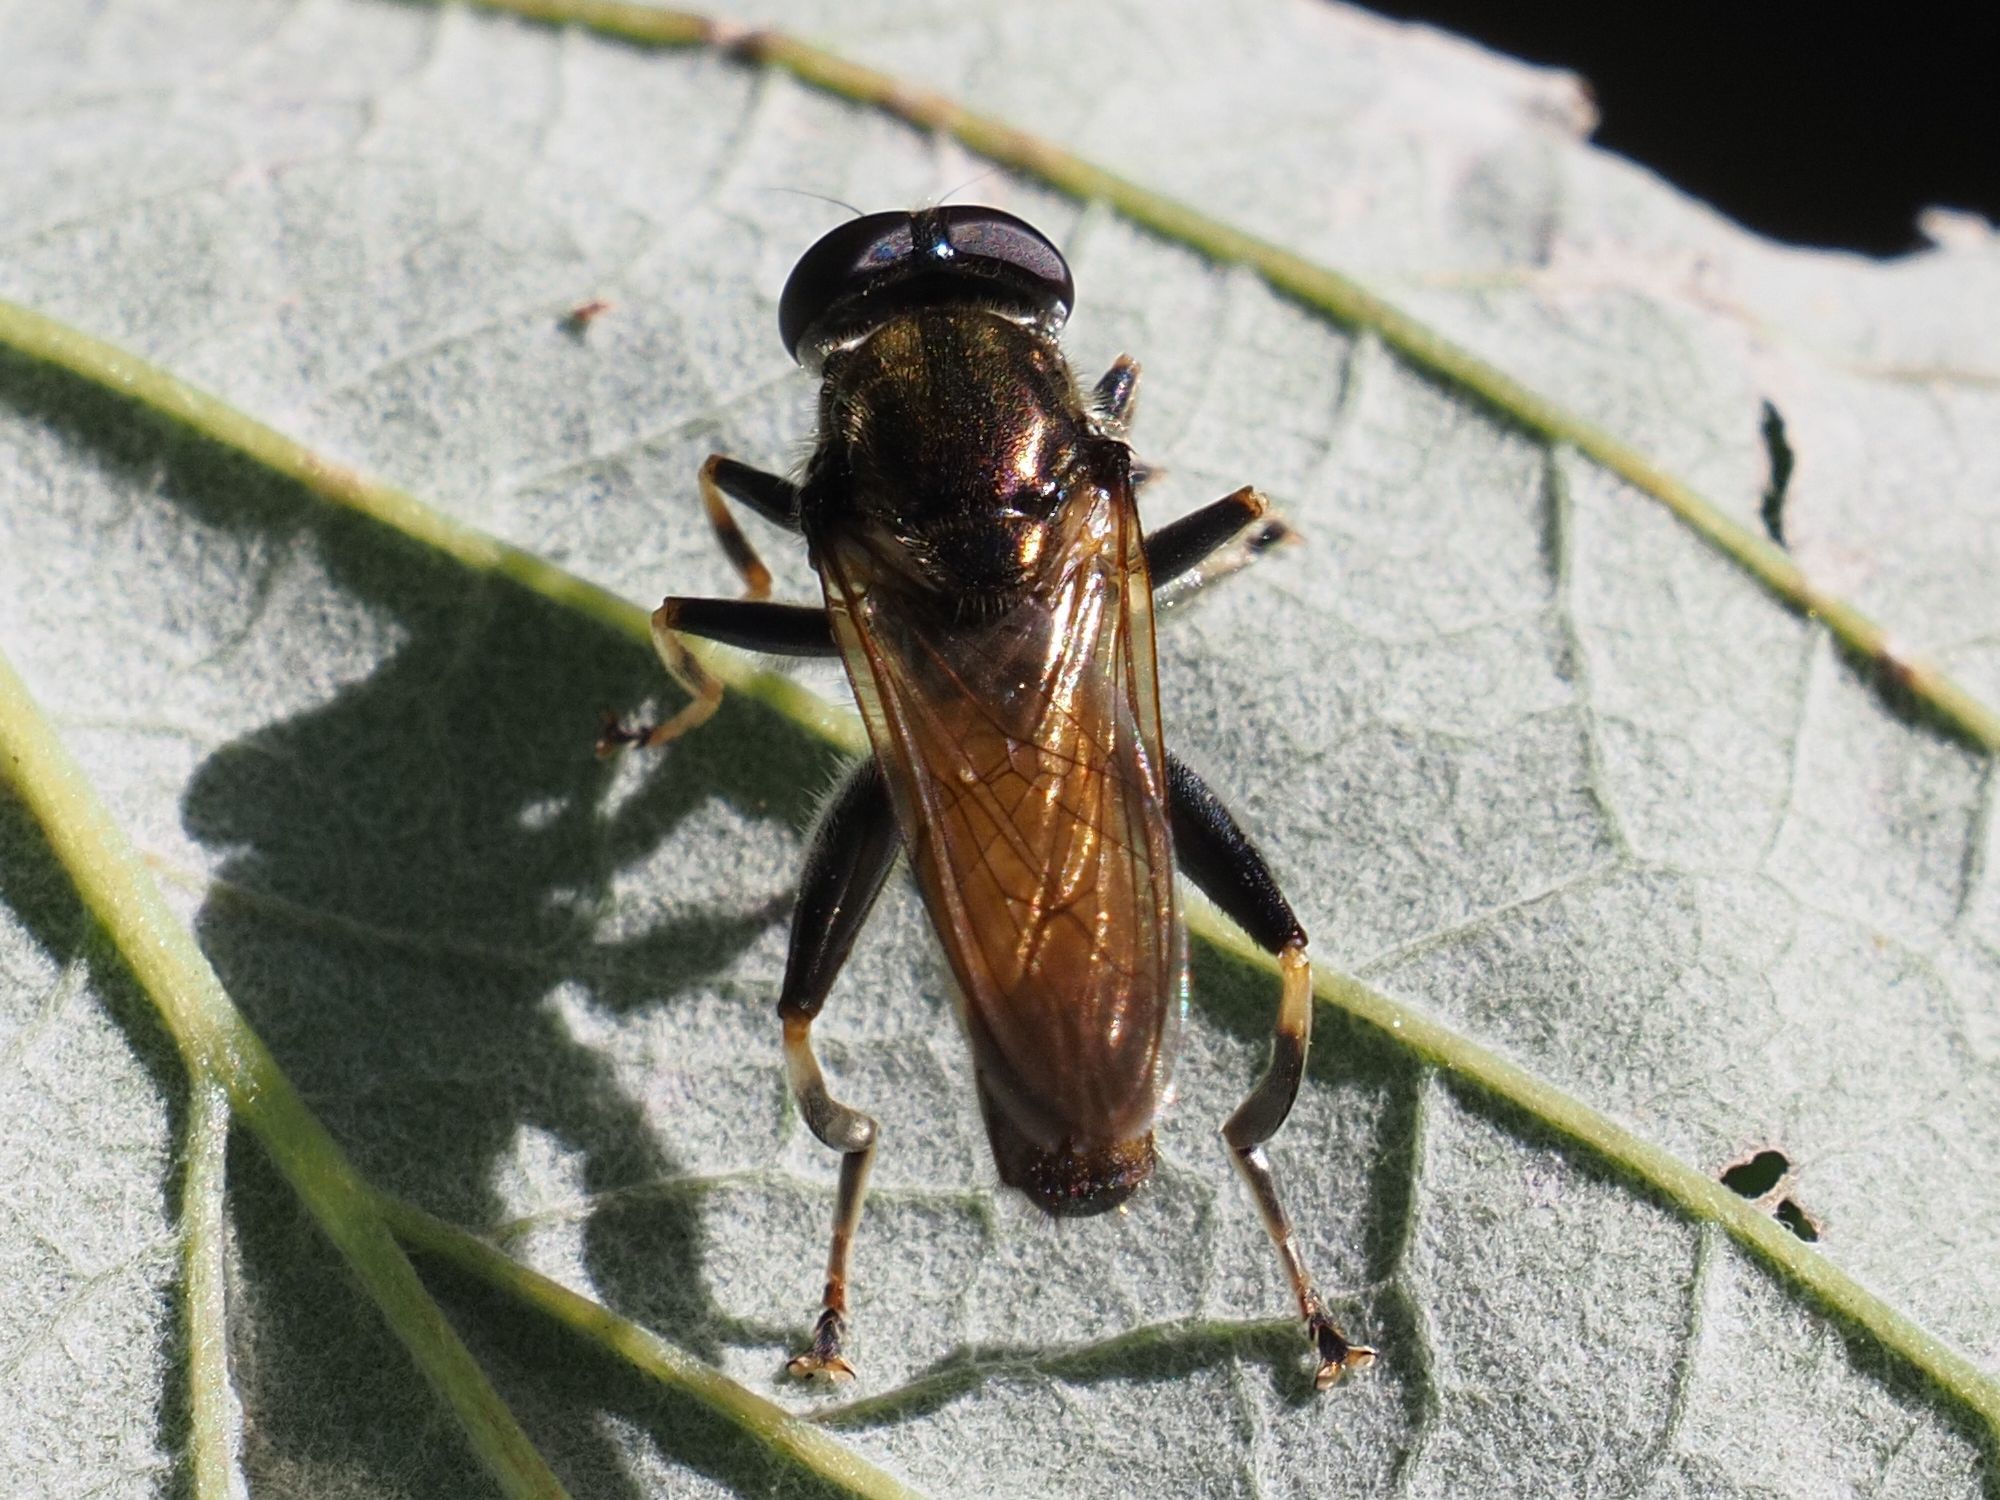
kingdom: Animalia
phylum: Arthropoda
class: Insecta
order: Diptera
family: Syrphidae
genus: Xylota
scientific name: Xylota segnis
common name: Brown-toed forest fly
